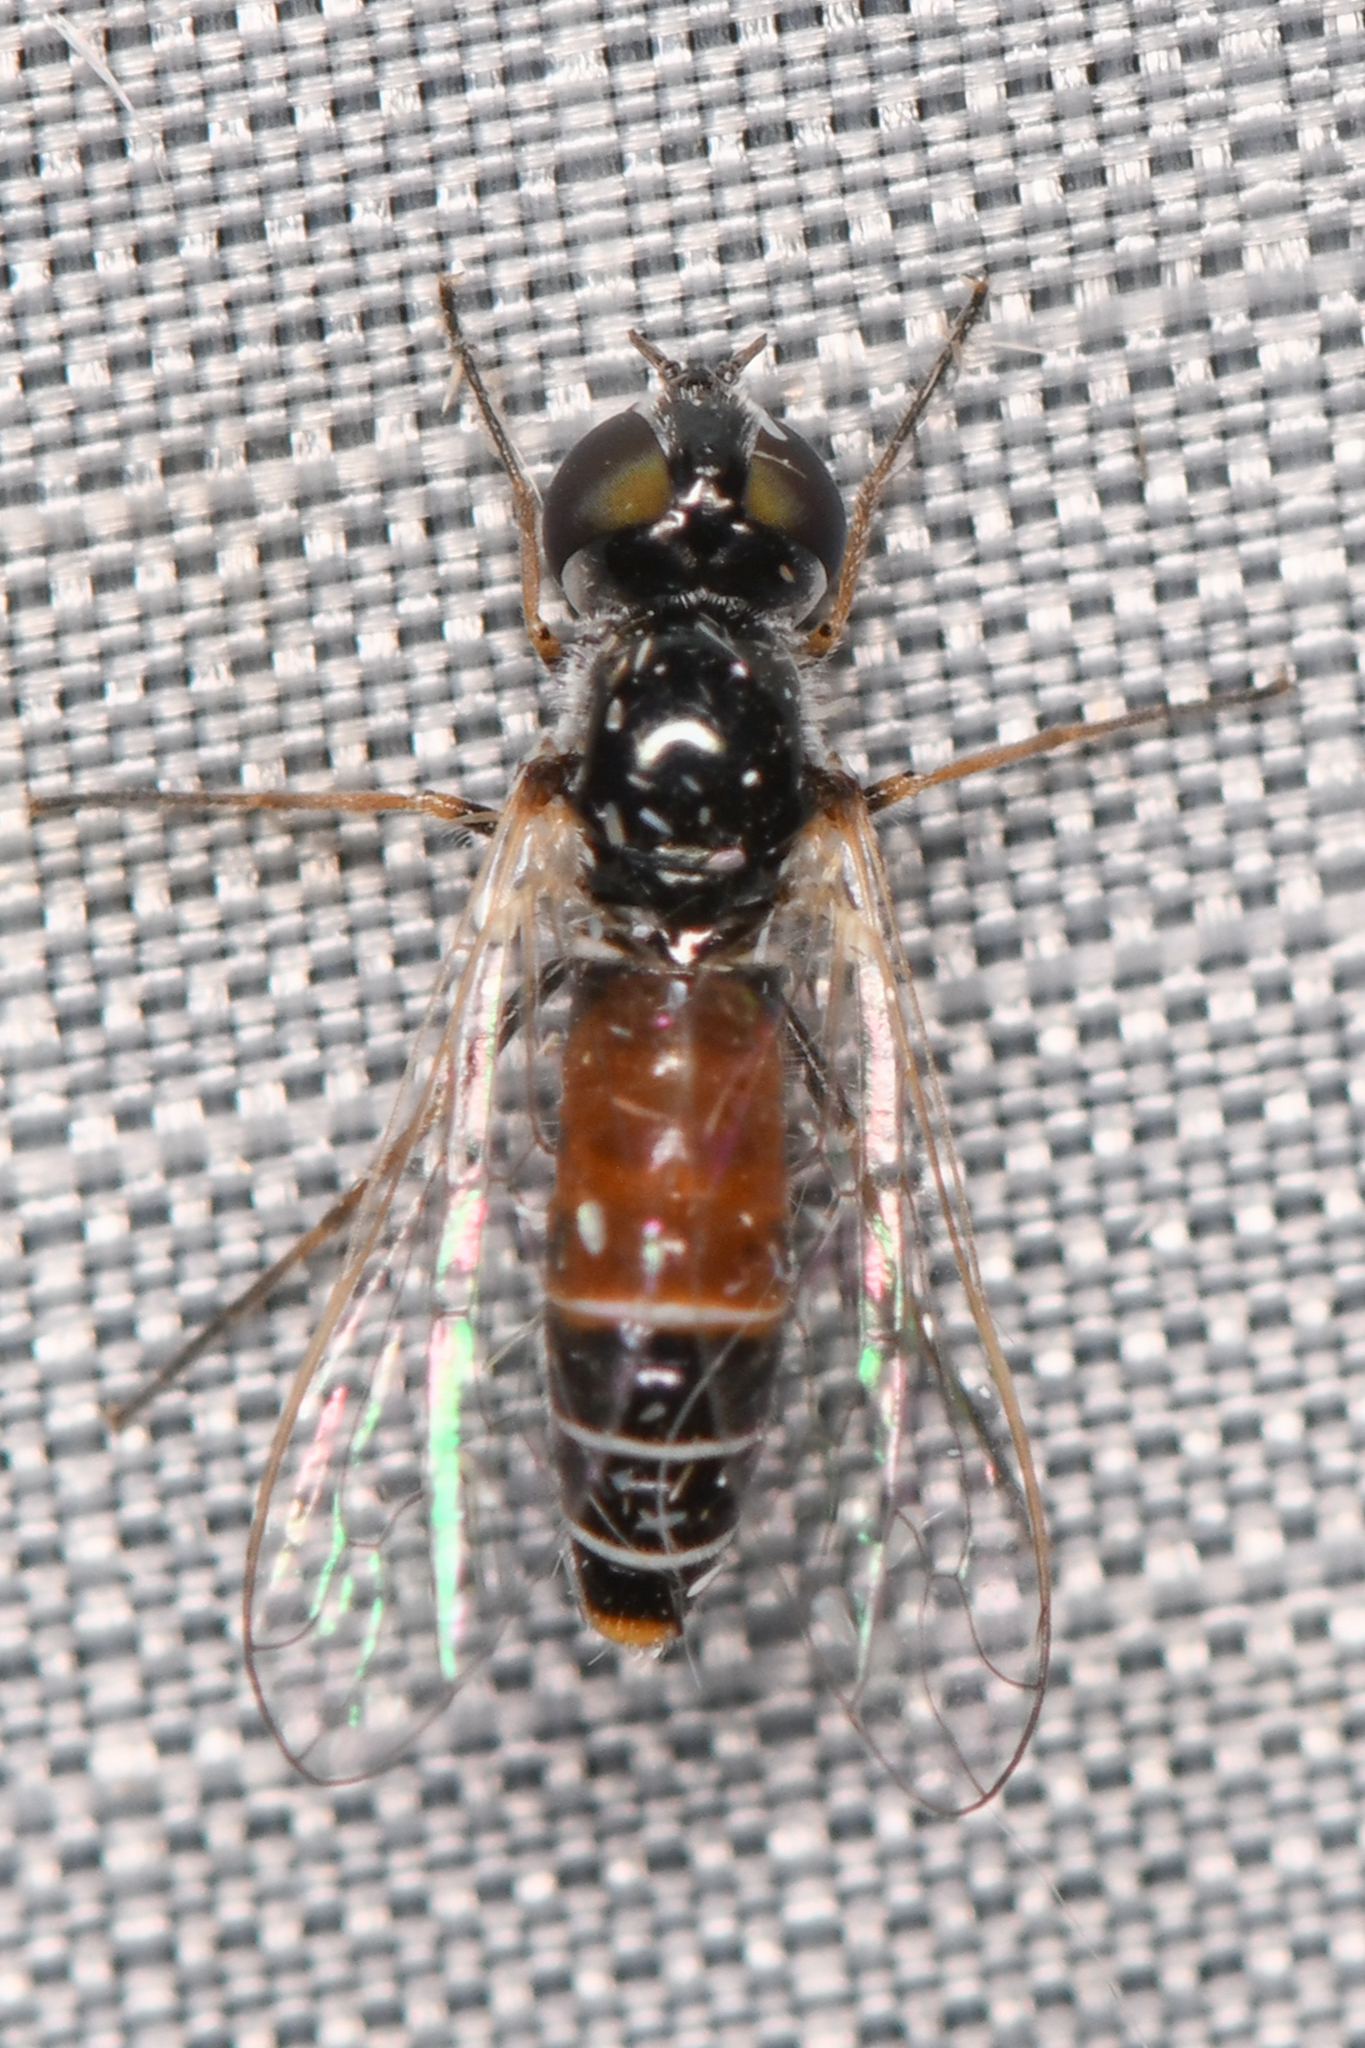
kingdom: Animalia
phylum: Arthropoda
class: Insecta
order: Diptera
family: Bombyliidae
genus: Amphicosmus
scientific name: Amphicosmus elegans
